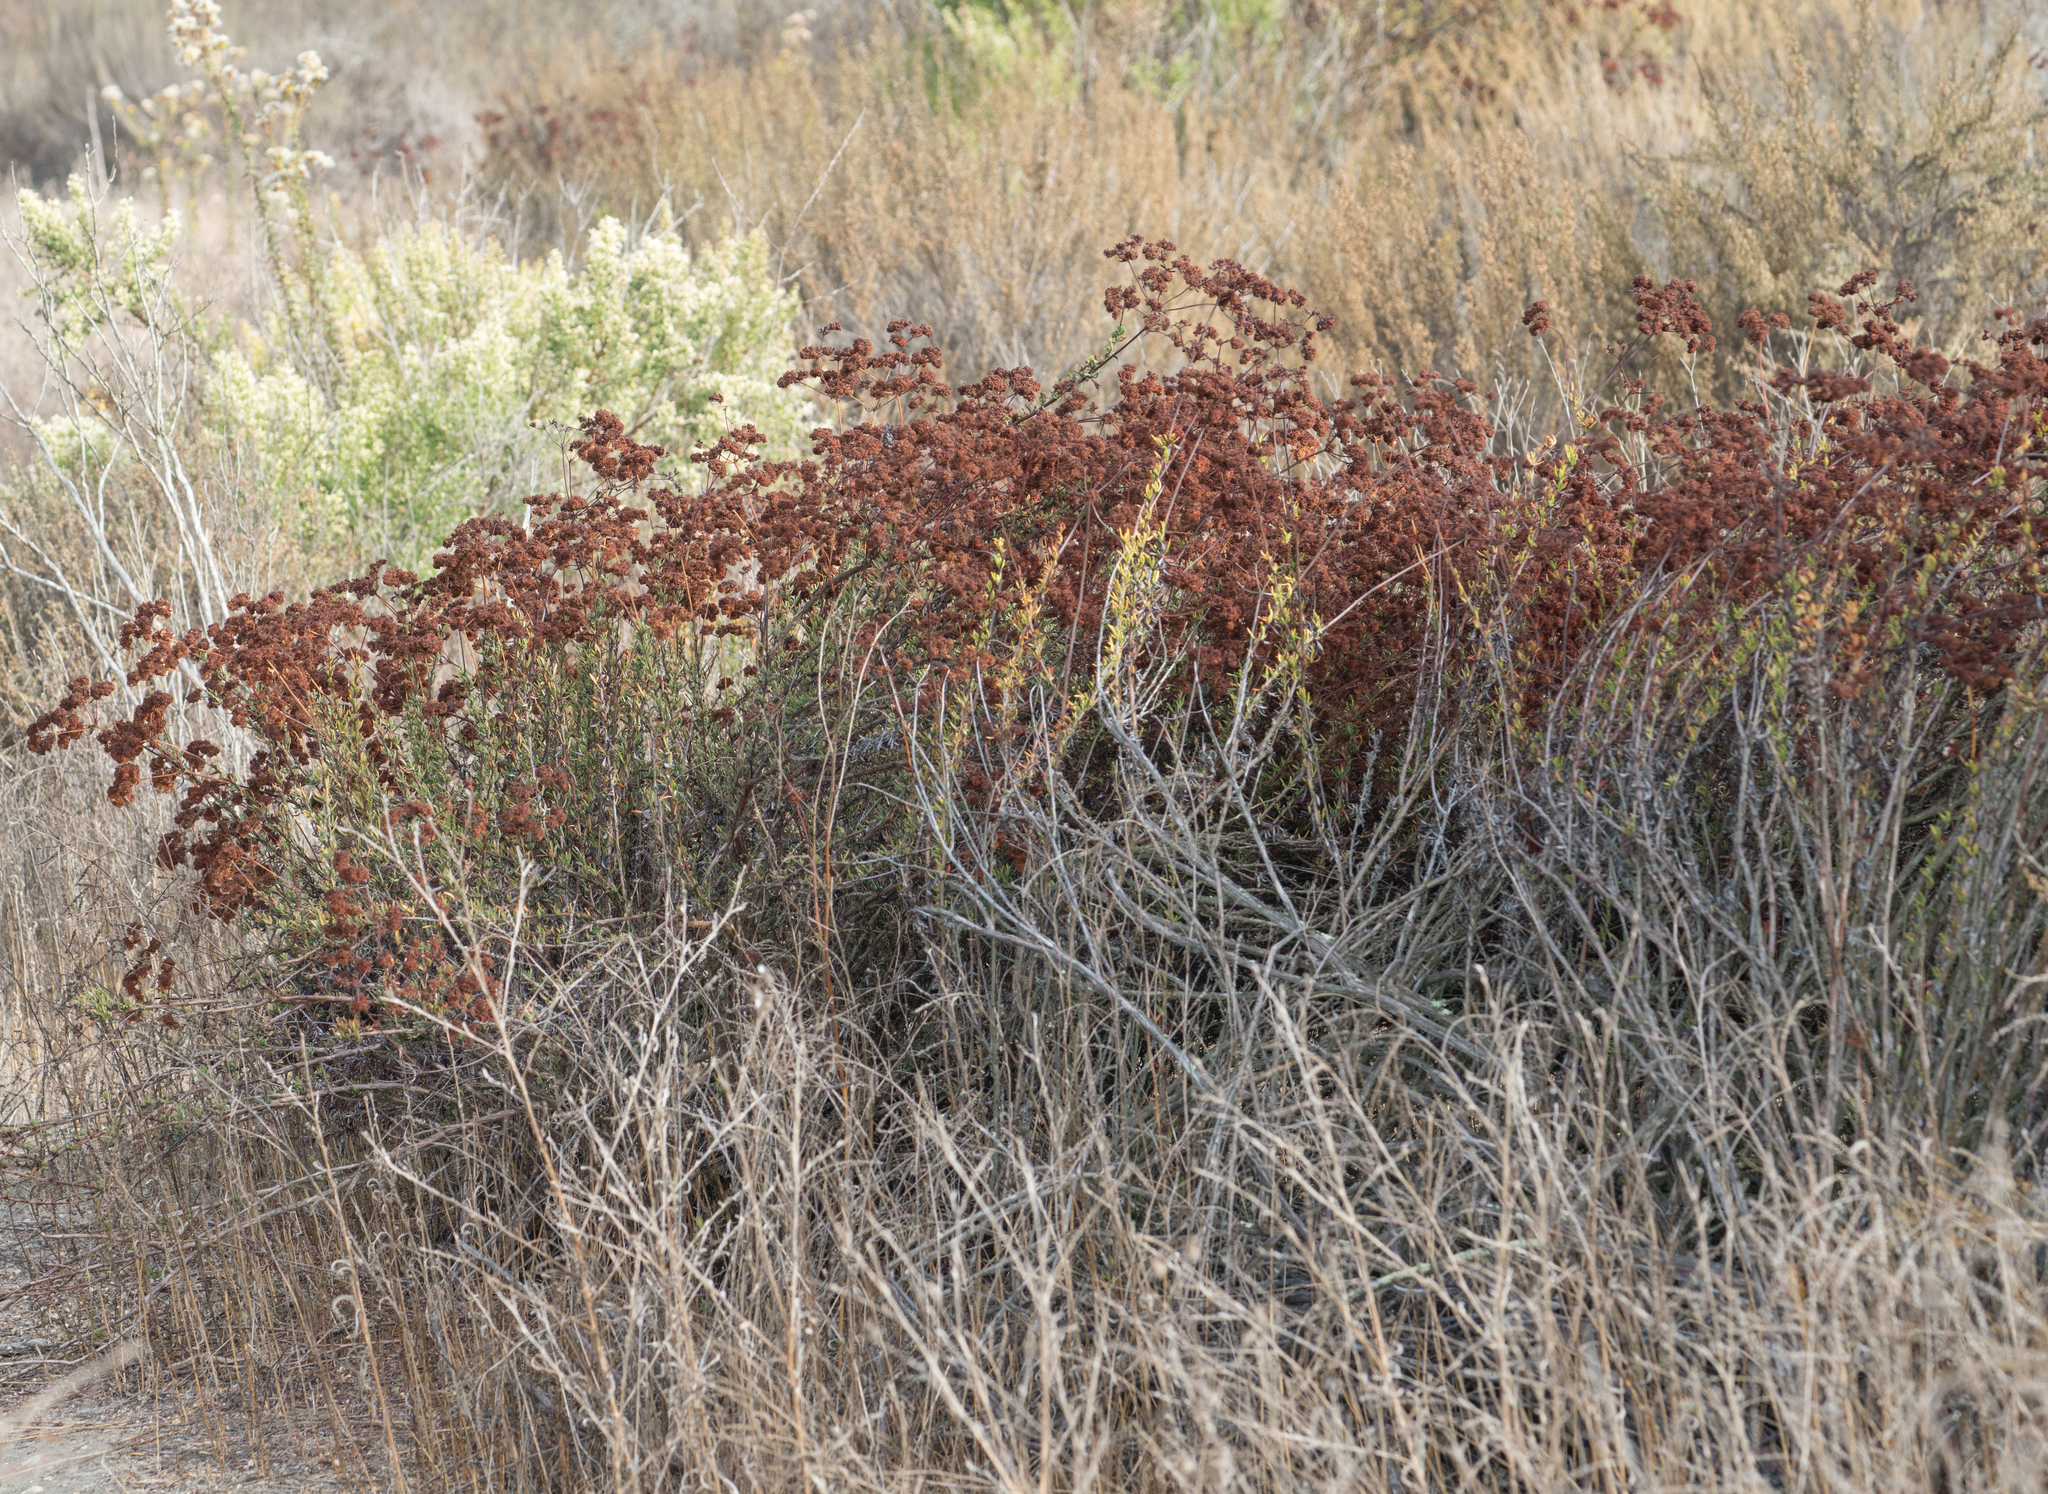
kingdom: Plantae
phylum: Tracheophyta
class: Magnoliopsida
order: Caryophyllales
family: Polygonaceae
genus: Eriogonum
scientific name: Eriogonum fasciculatum
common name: California wild buckwheat
